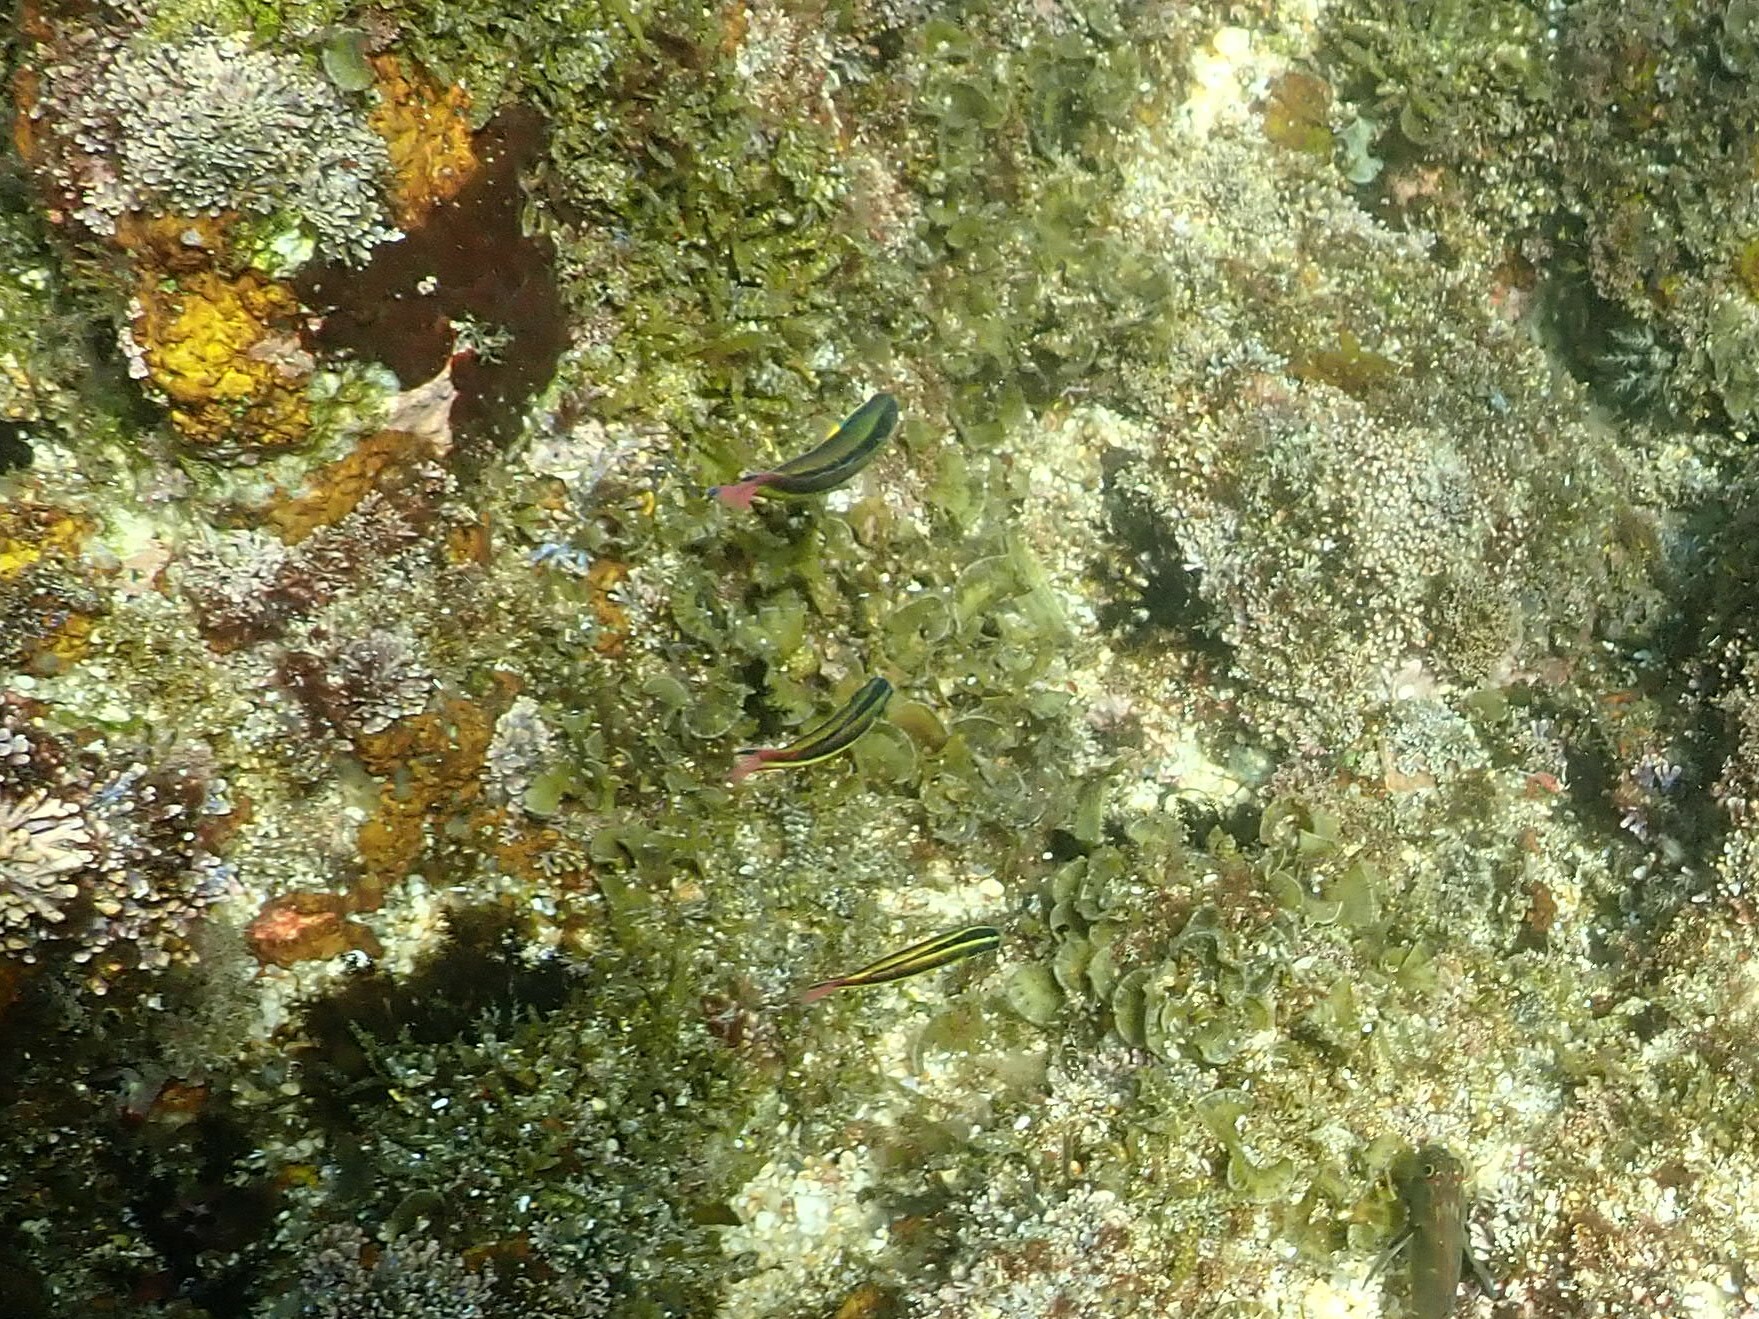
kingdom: Animalia
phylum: Chordata
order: Perciformes
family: Labridae
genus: Thalassoma
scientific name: Thalassoma lucasanum
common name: Cortez rainbow wrasse
